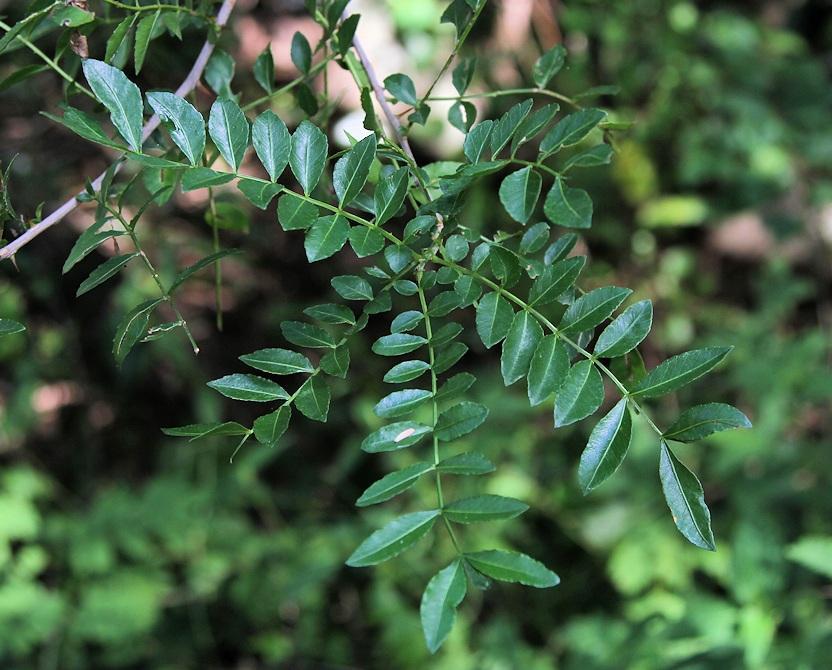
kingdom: Plantae
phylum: Tracheophyta
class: Magnoliopsida
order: Sapindales
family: Rutaceae
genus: Zanthoxylum
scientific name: Zanthoxylum capense
